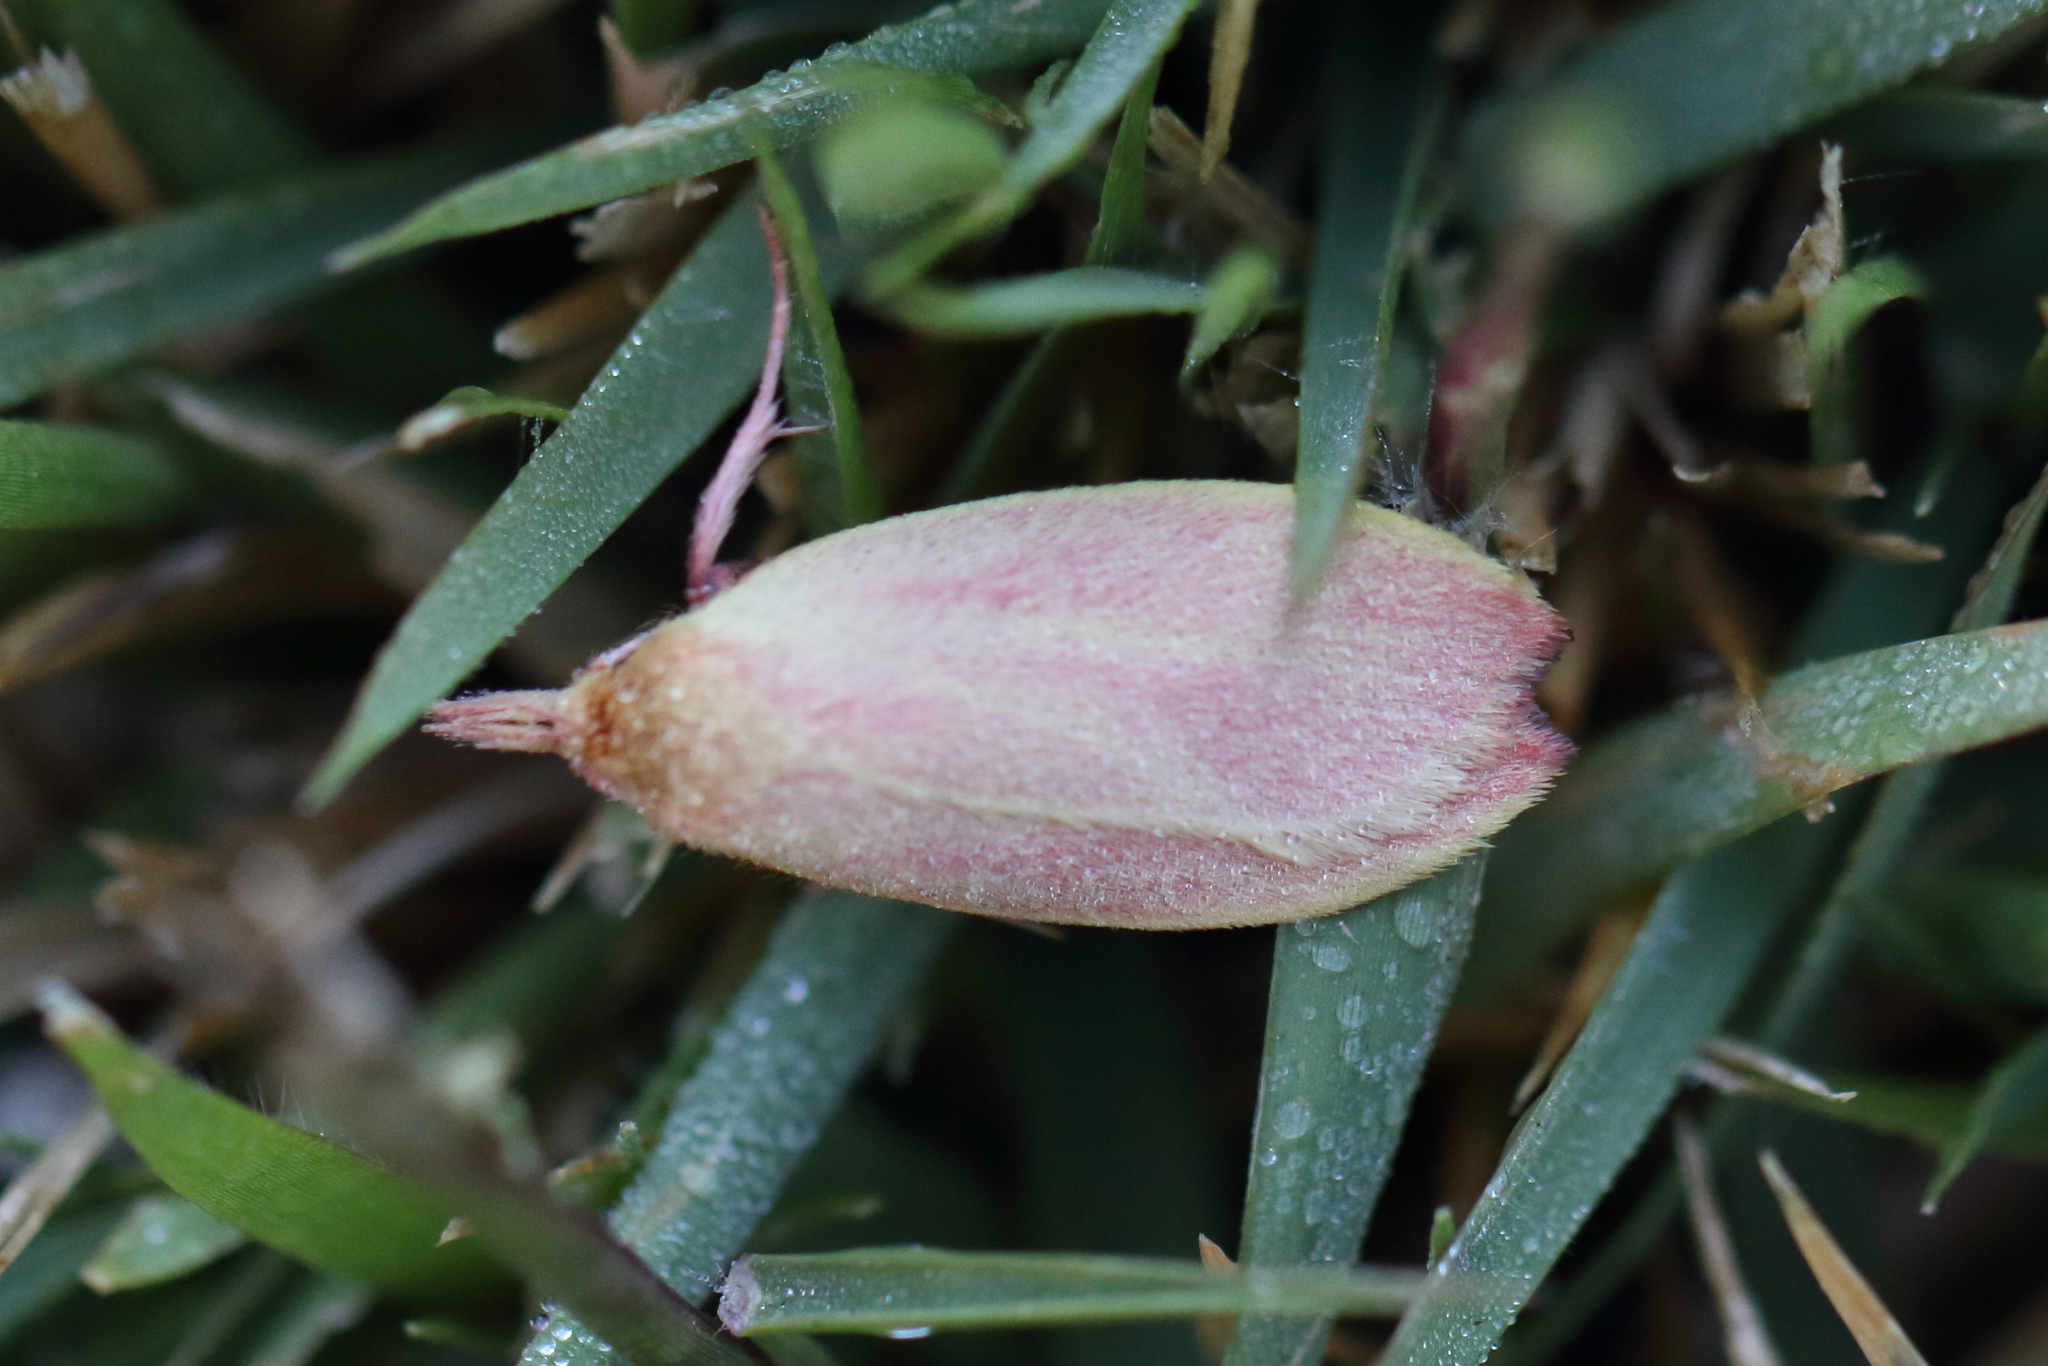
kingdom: Animalia
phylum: Arthropoda
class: Insecta
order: Lepidoptera
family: Oecophoridae
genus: Wingia
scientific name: Wingia rectiorella
